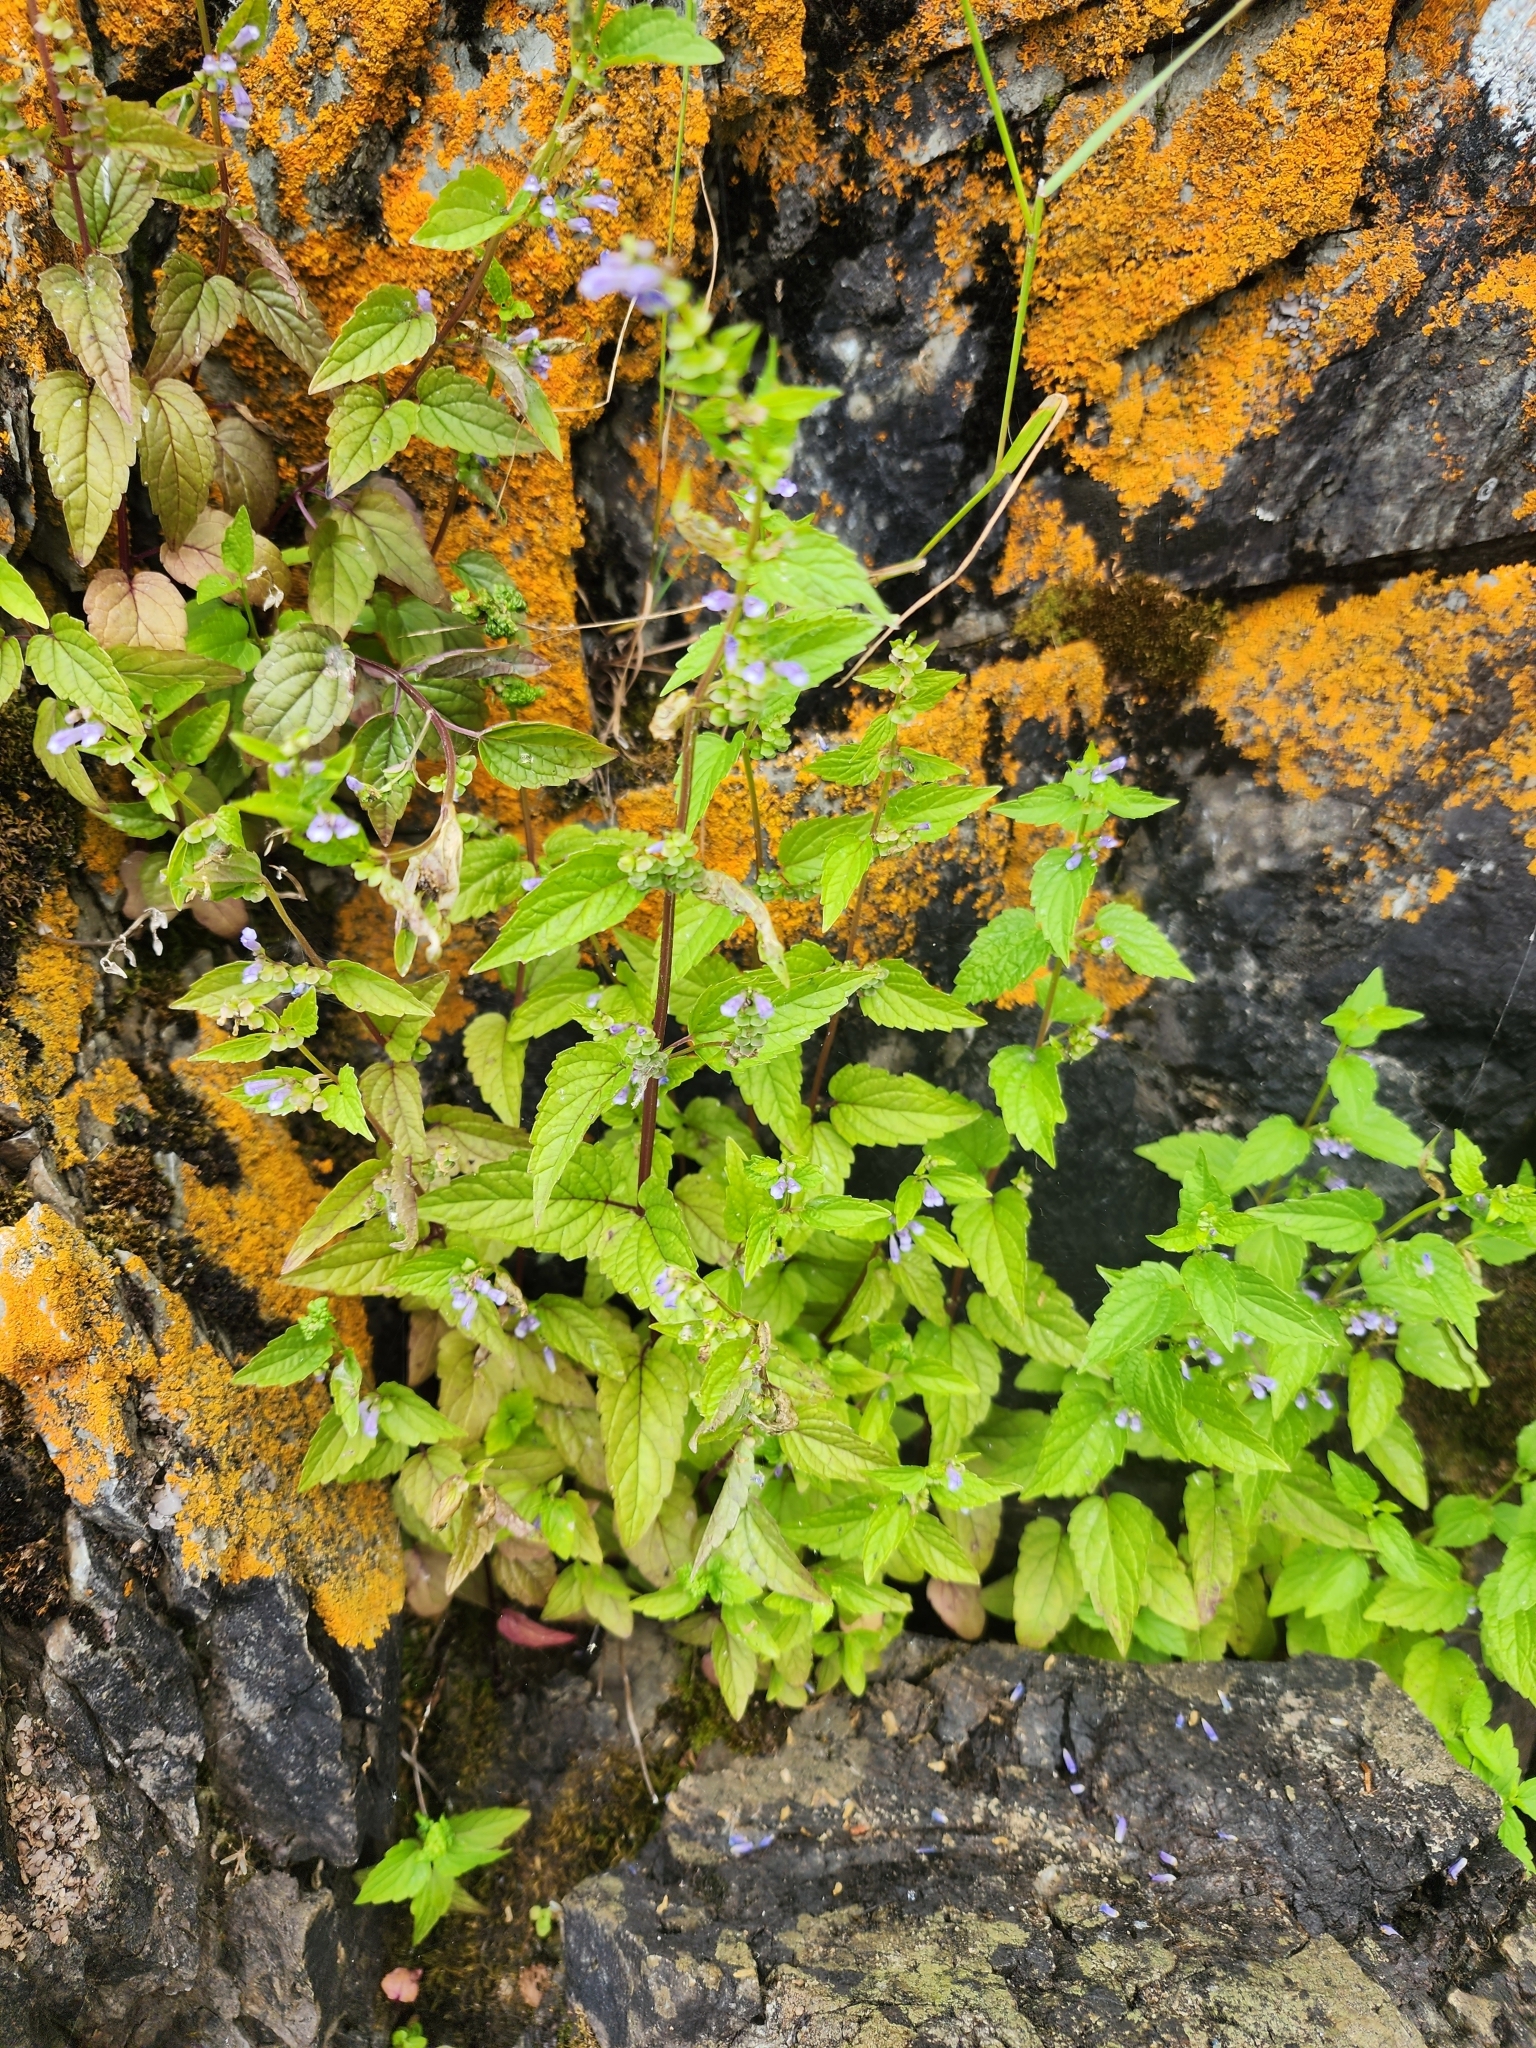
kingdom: Plantae
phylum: Tracheophyta
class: Magnoliopsida
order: Lamiales
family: Lamiaceae
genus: Scutellaria
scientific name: Scutellaria lateriflora
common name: Blue skullcap
